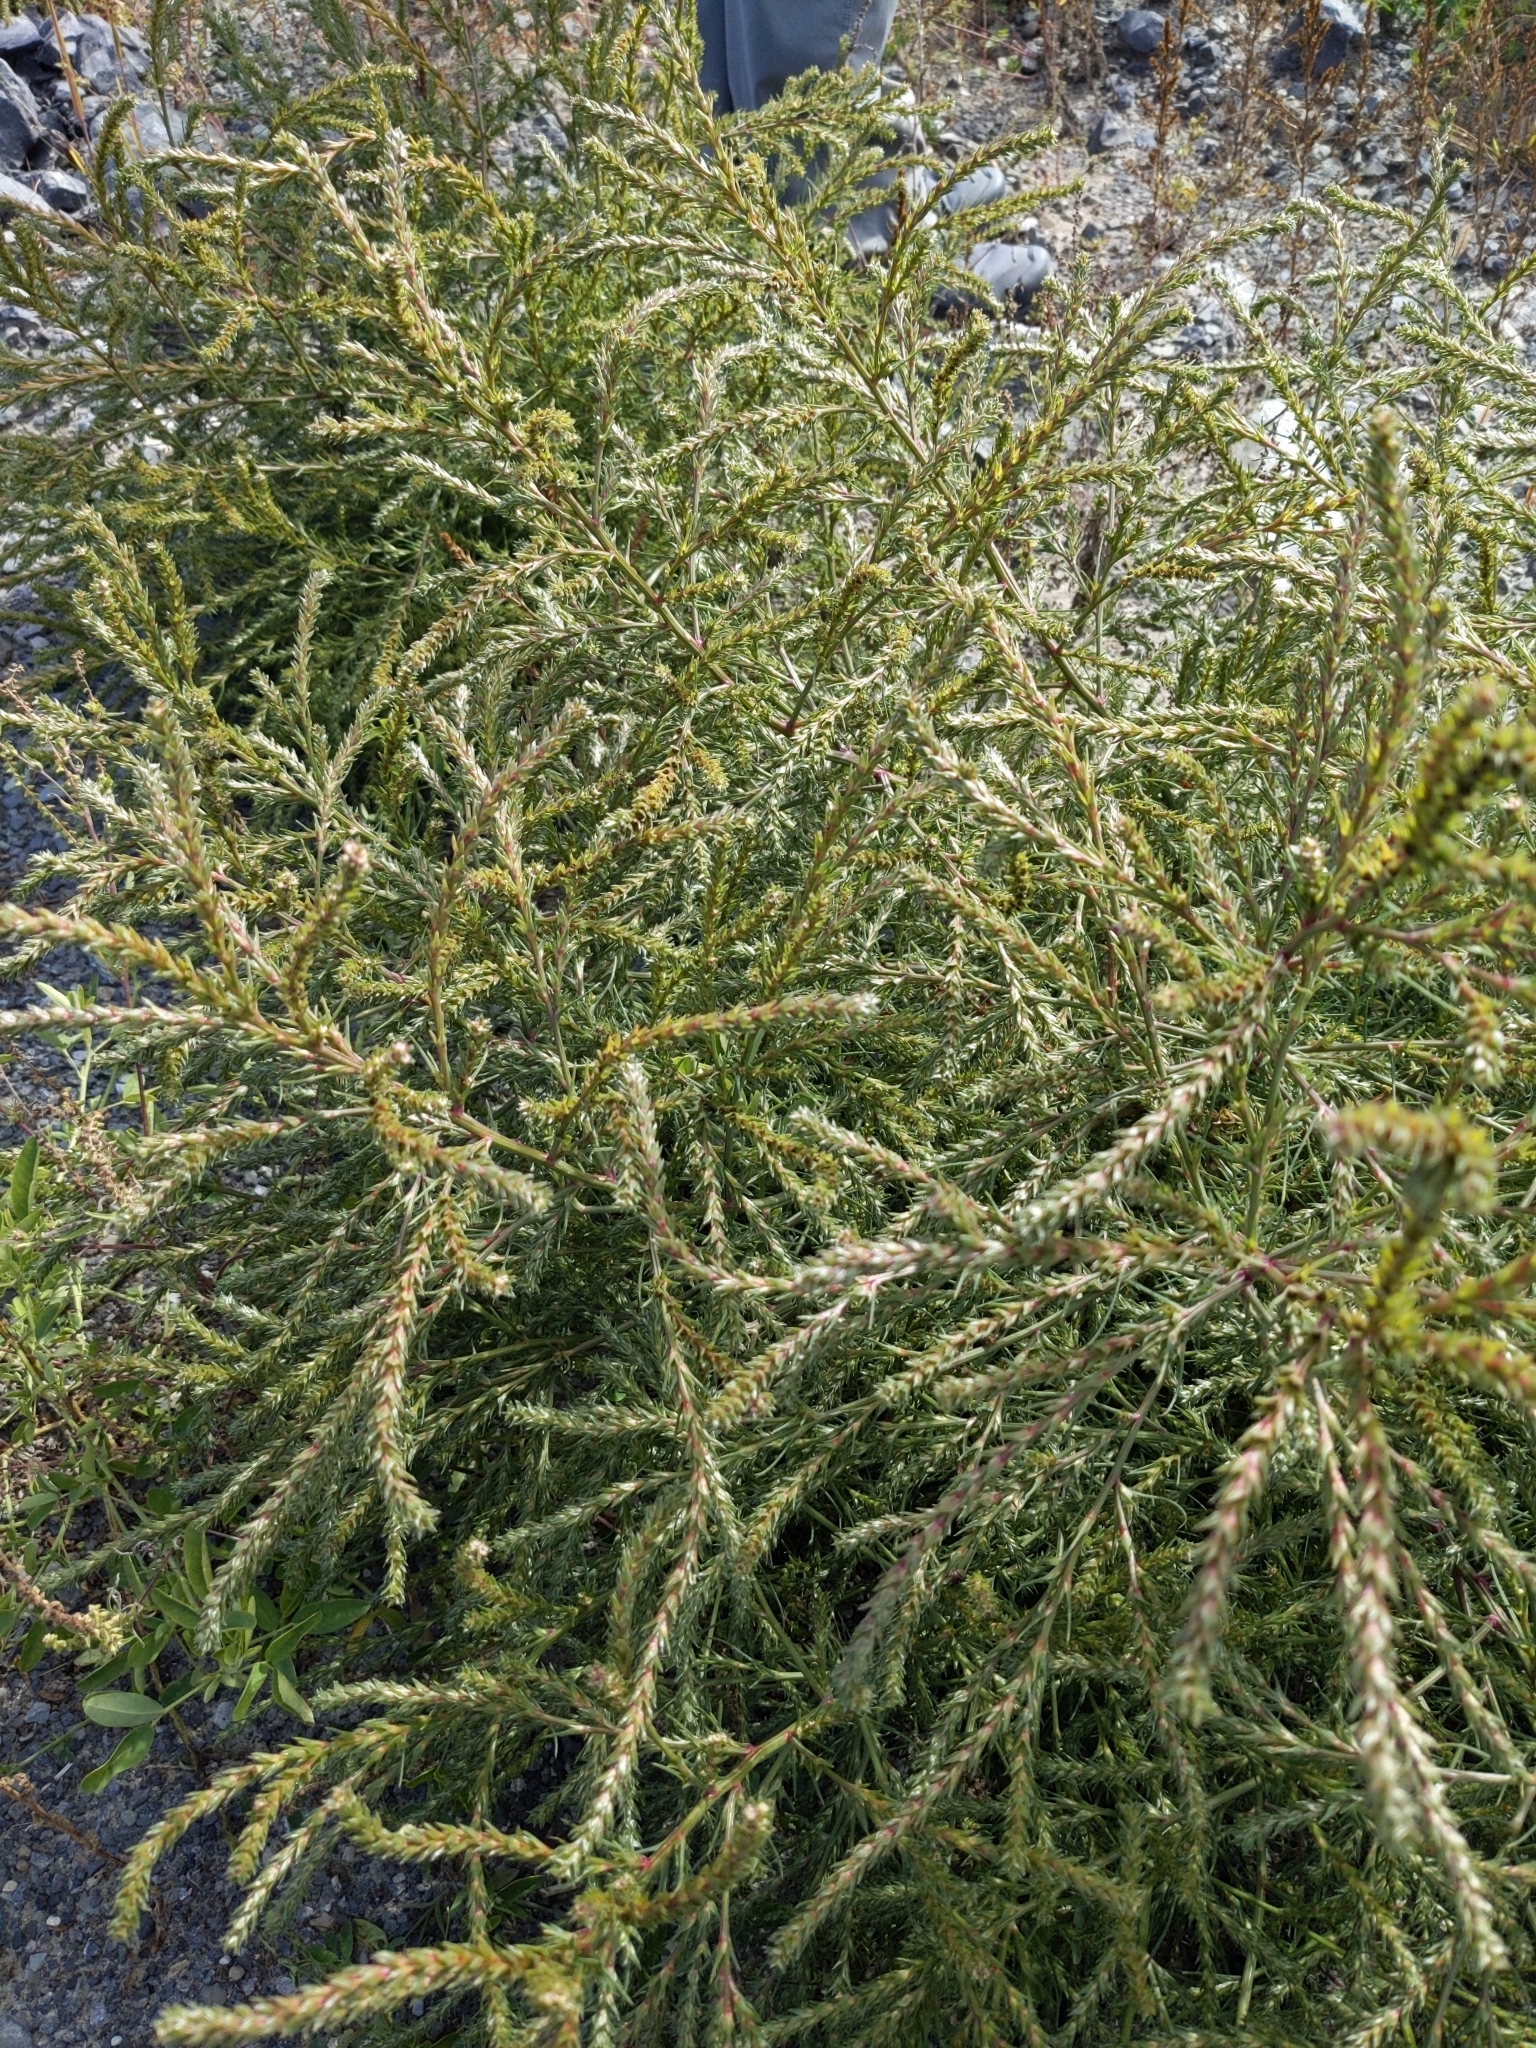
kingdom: Plantae
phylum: Tracheophyta
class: Magnoliopsida
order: Caryophyllales
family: Amaranthaceae
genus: Salsola
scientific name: Salsola collina
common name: Tumbleweed
